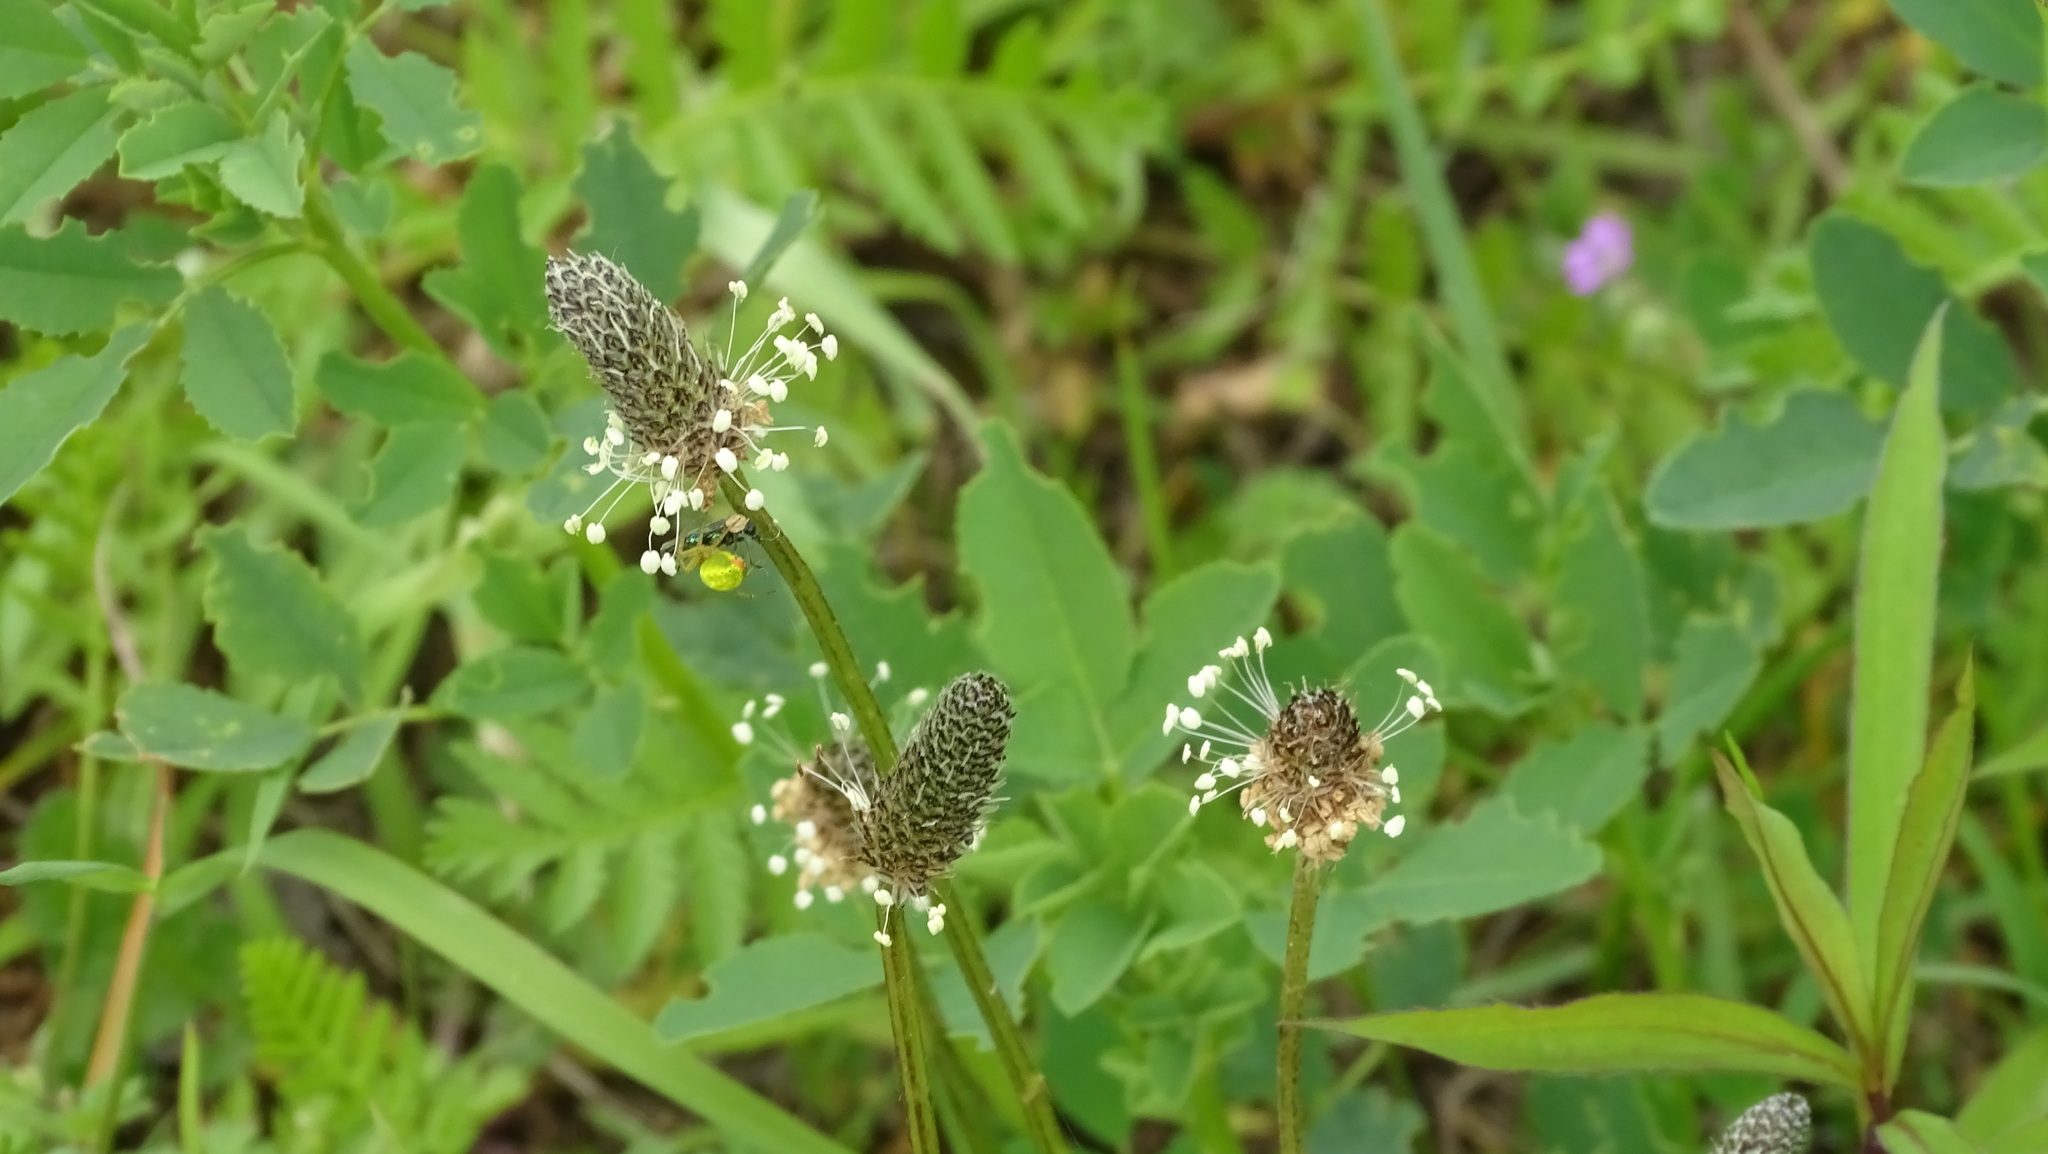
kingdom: Plantae
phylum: Tracheophyta
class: Magnoliopsida
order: Lamiales
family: Plantaginaceae
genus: Plantago
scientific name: Plantago lanceolata
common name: Ribwort plantain
